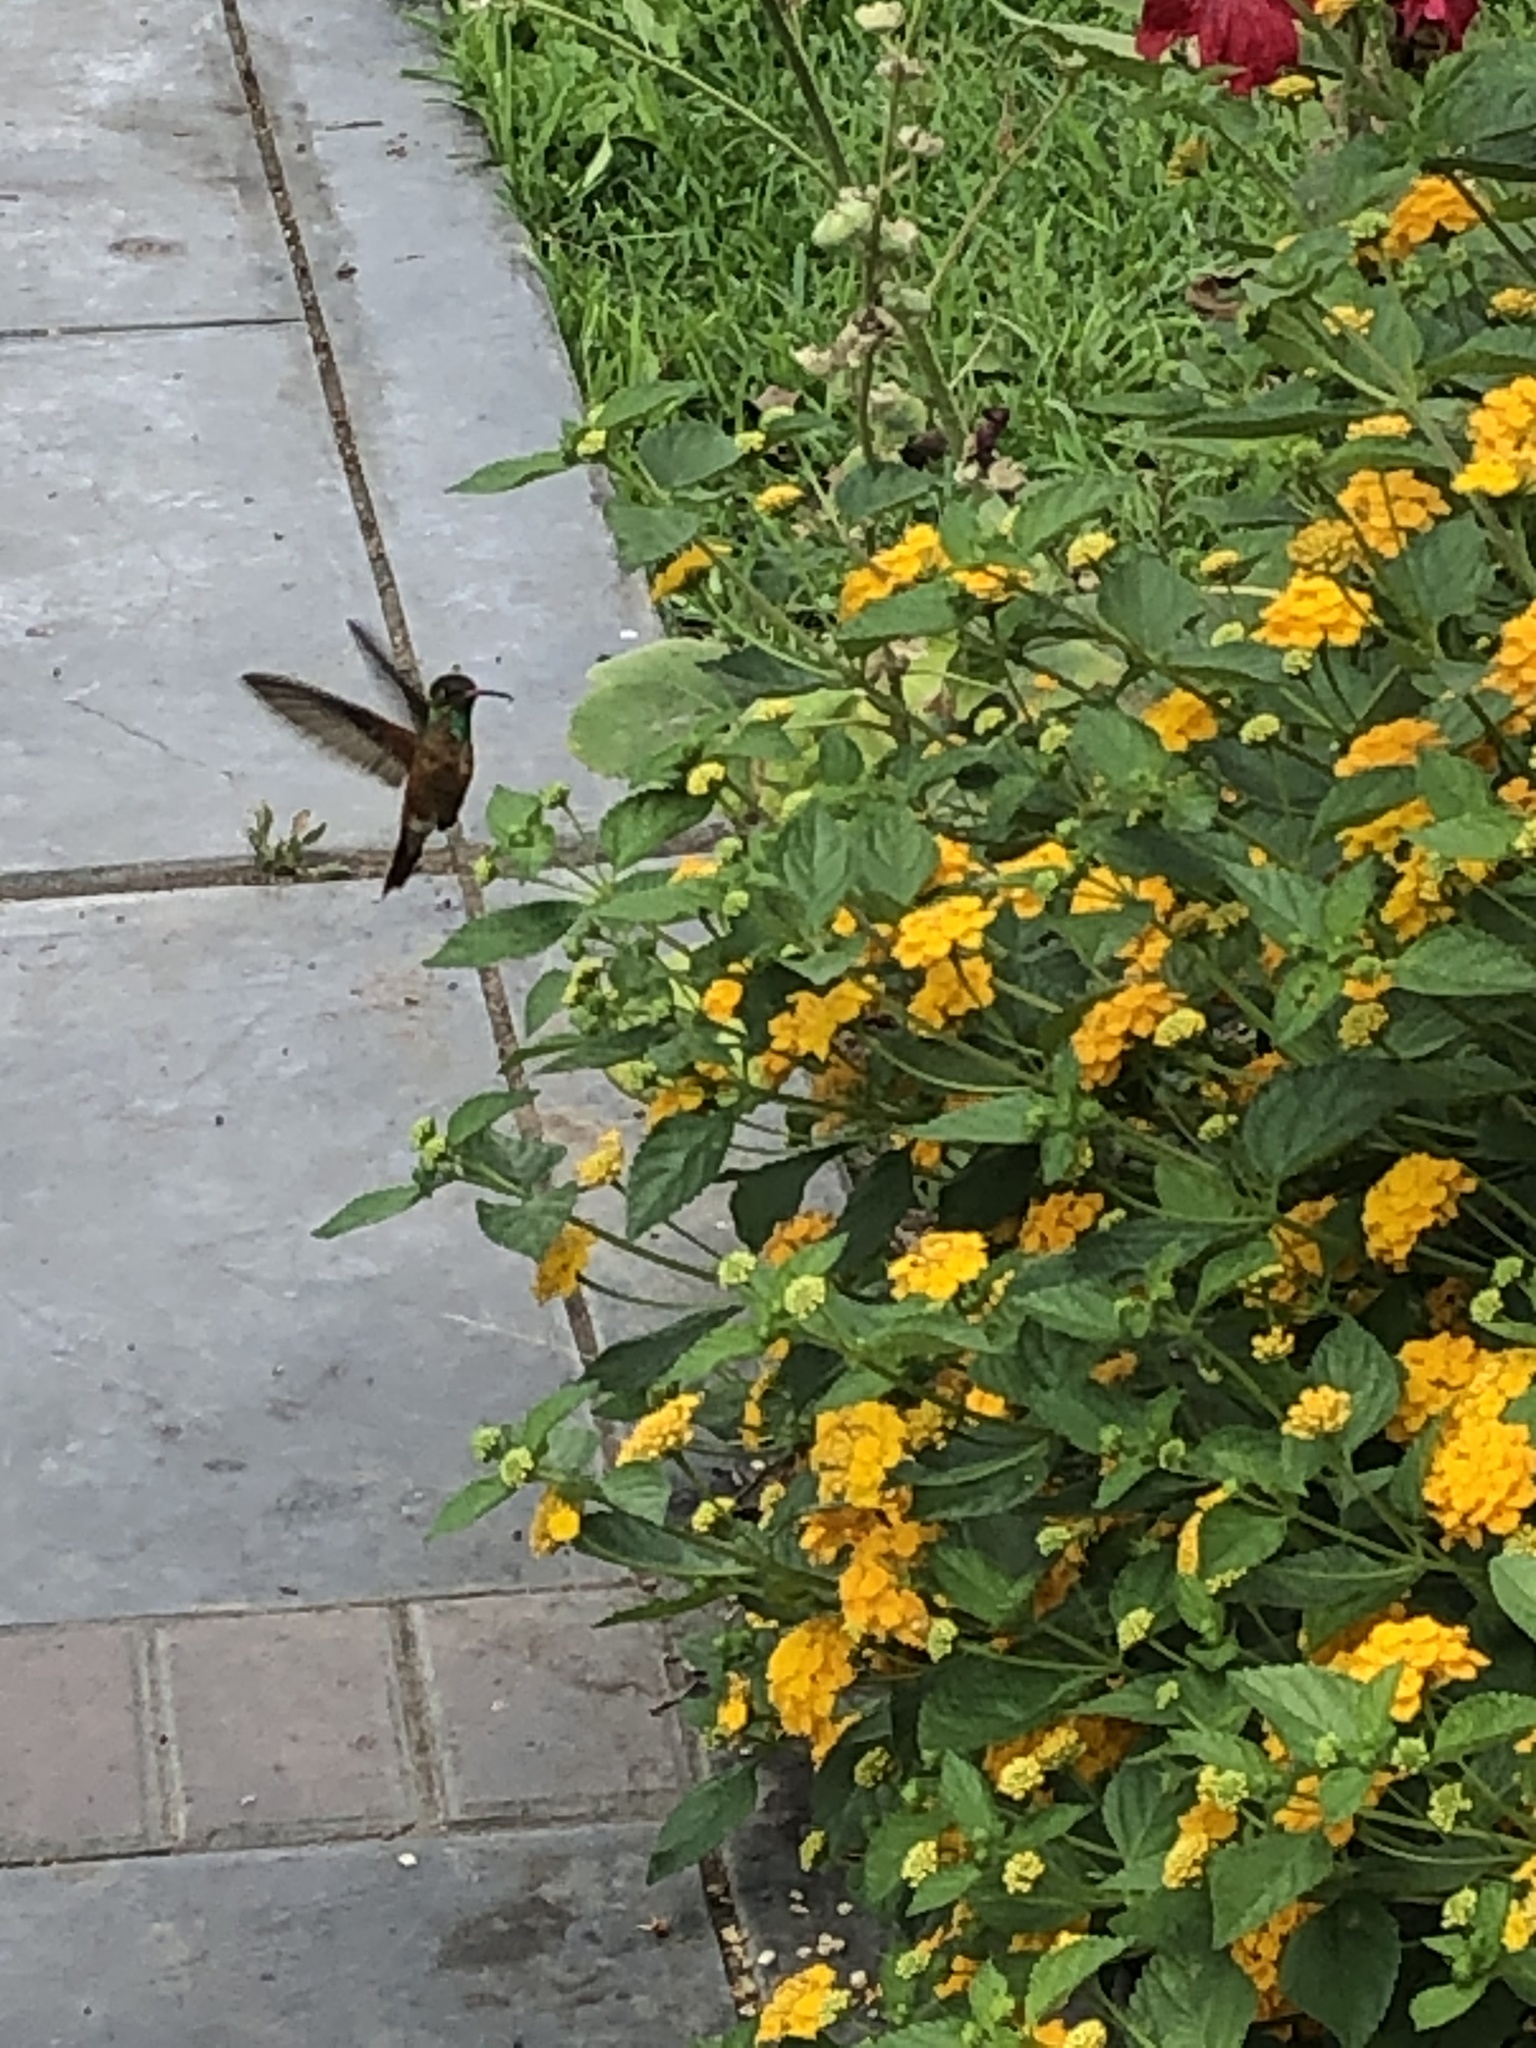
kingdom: Animalia
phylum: Chordata
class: Aves
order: Apodiformes
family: Trochilidae
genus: Amazilis
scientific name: Amazilis amazilia
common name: Amazilia hummingbird
